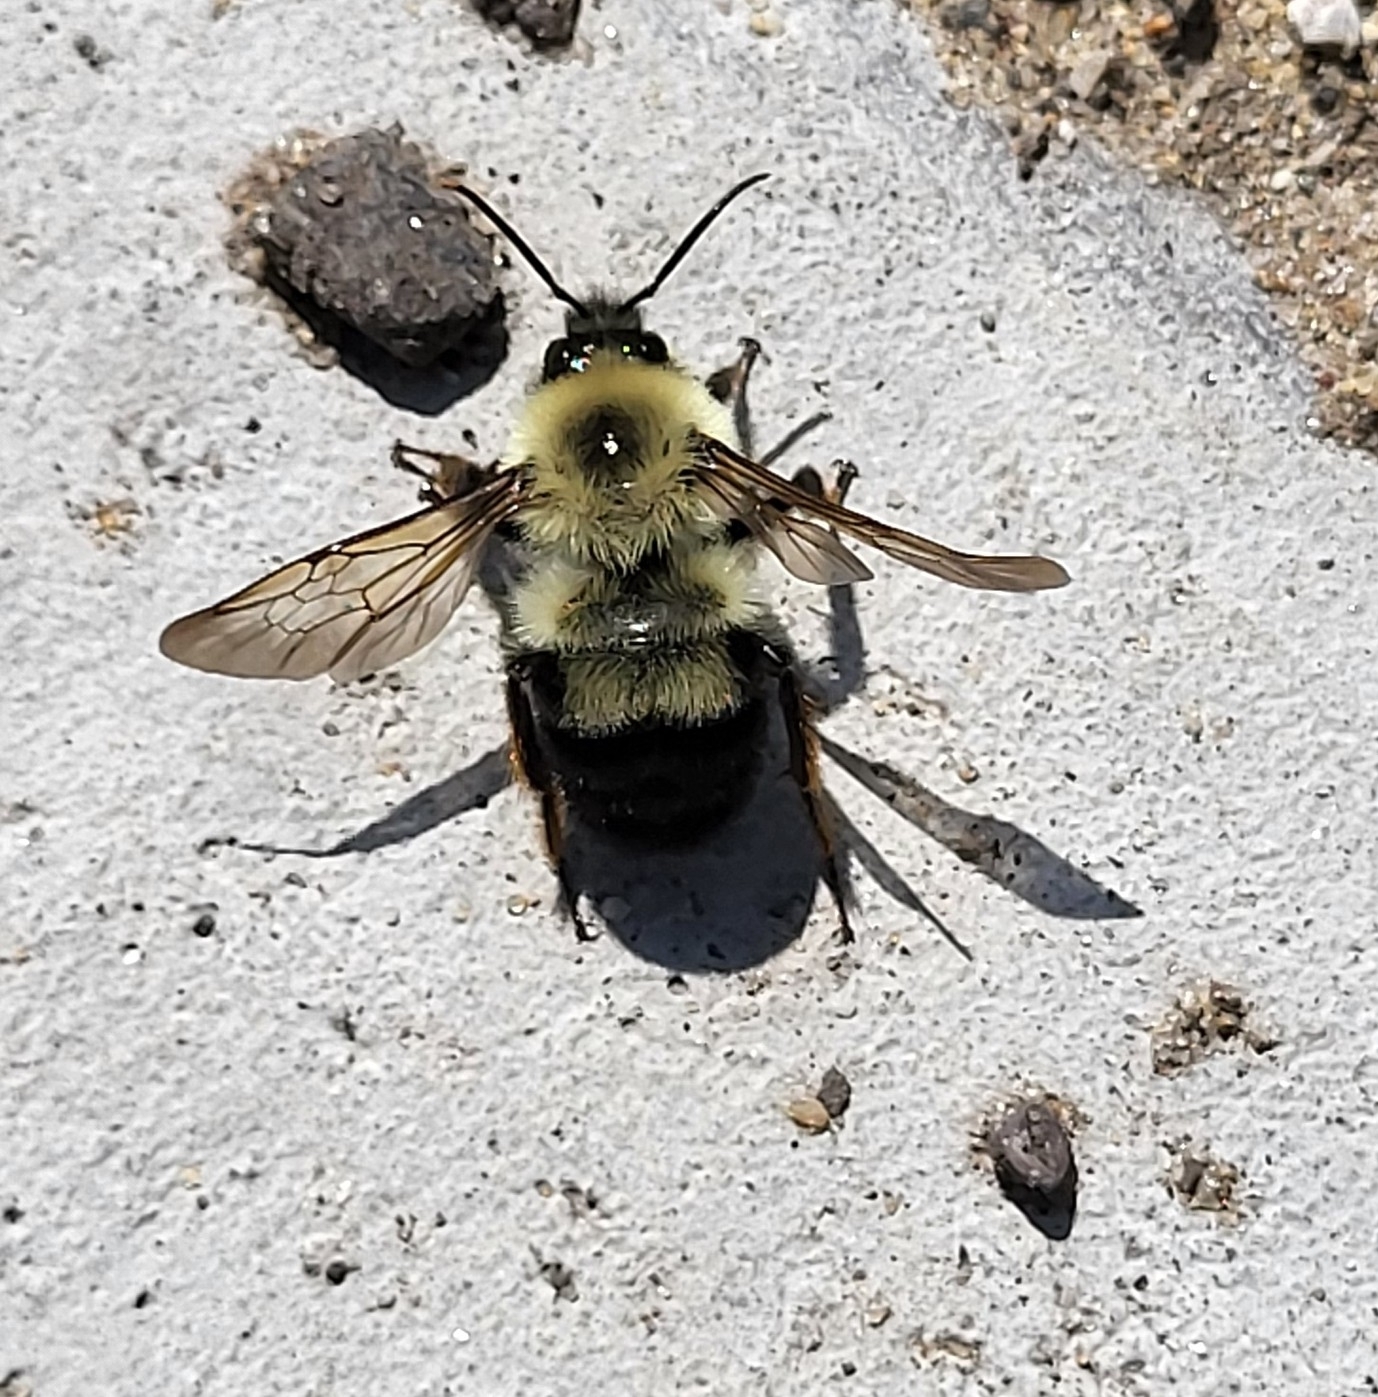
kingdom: Animalia
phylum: Arthropoda
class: Insecta
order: Hymenoptera
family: Apidae
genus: Bombus
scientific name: Bombus bimaculatus
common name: Two-spotted bumble bee
